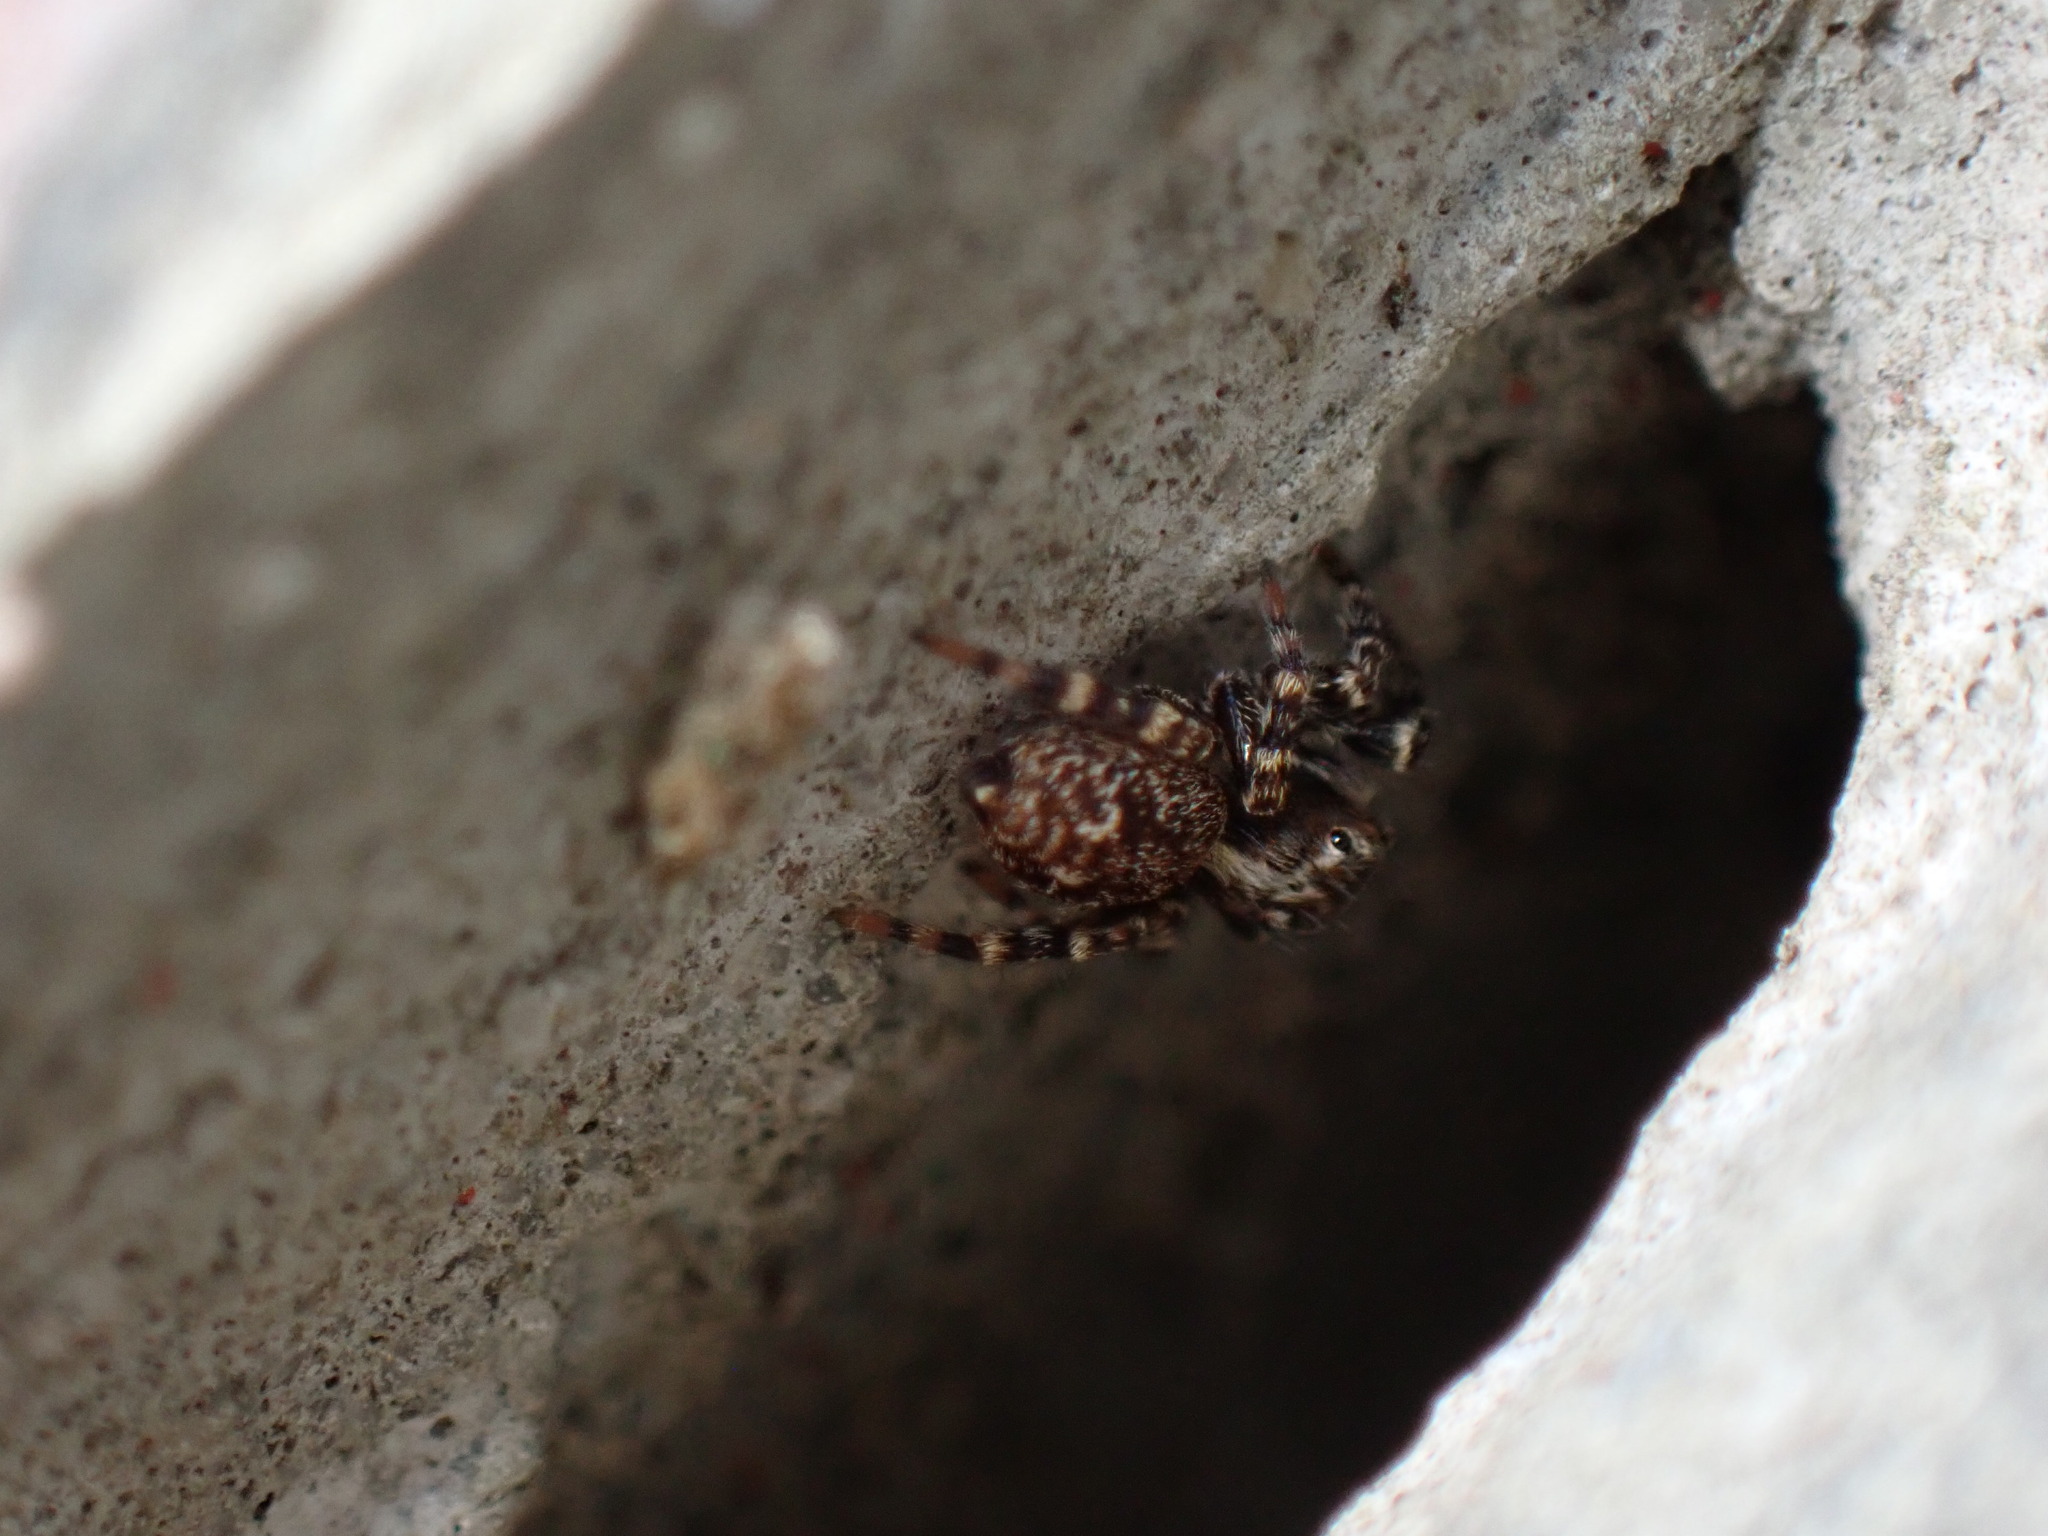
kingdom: Animalia
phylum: Arthropoda
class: Arachnida
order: Araneae
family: Salticidae
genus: Pseudeuophrys
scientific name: Pseudeuophrys erratica
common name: Jumping spider
